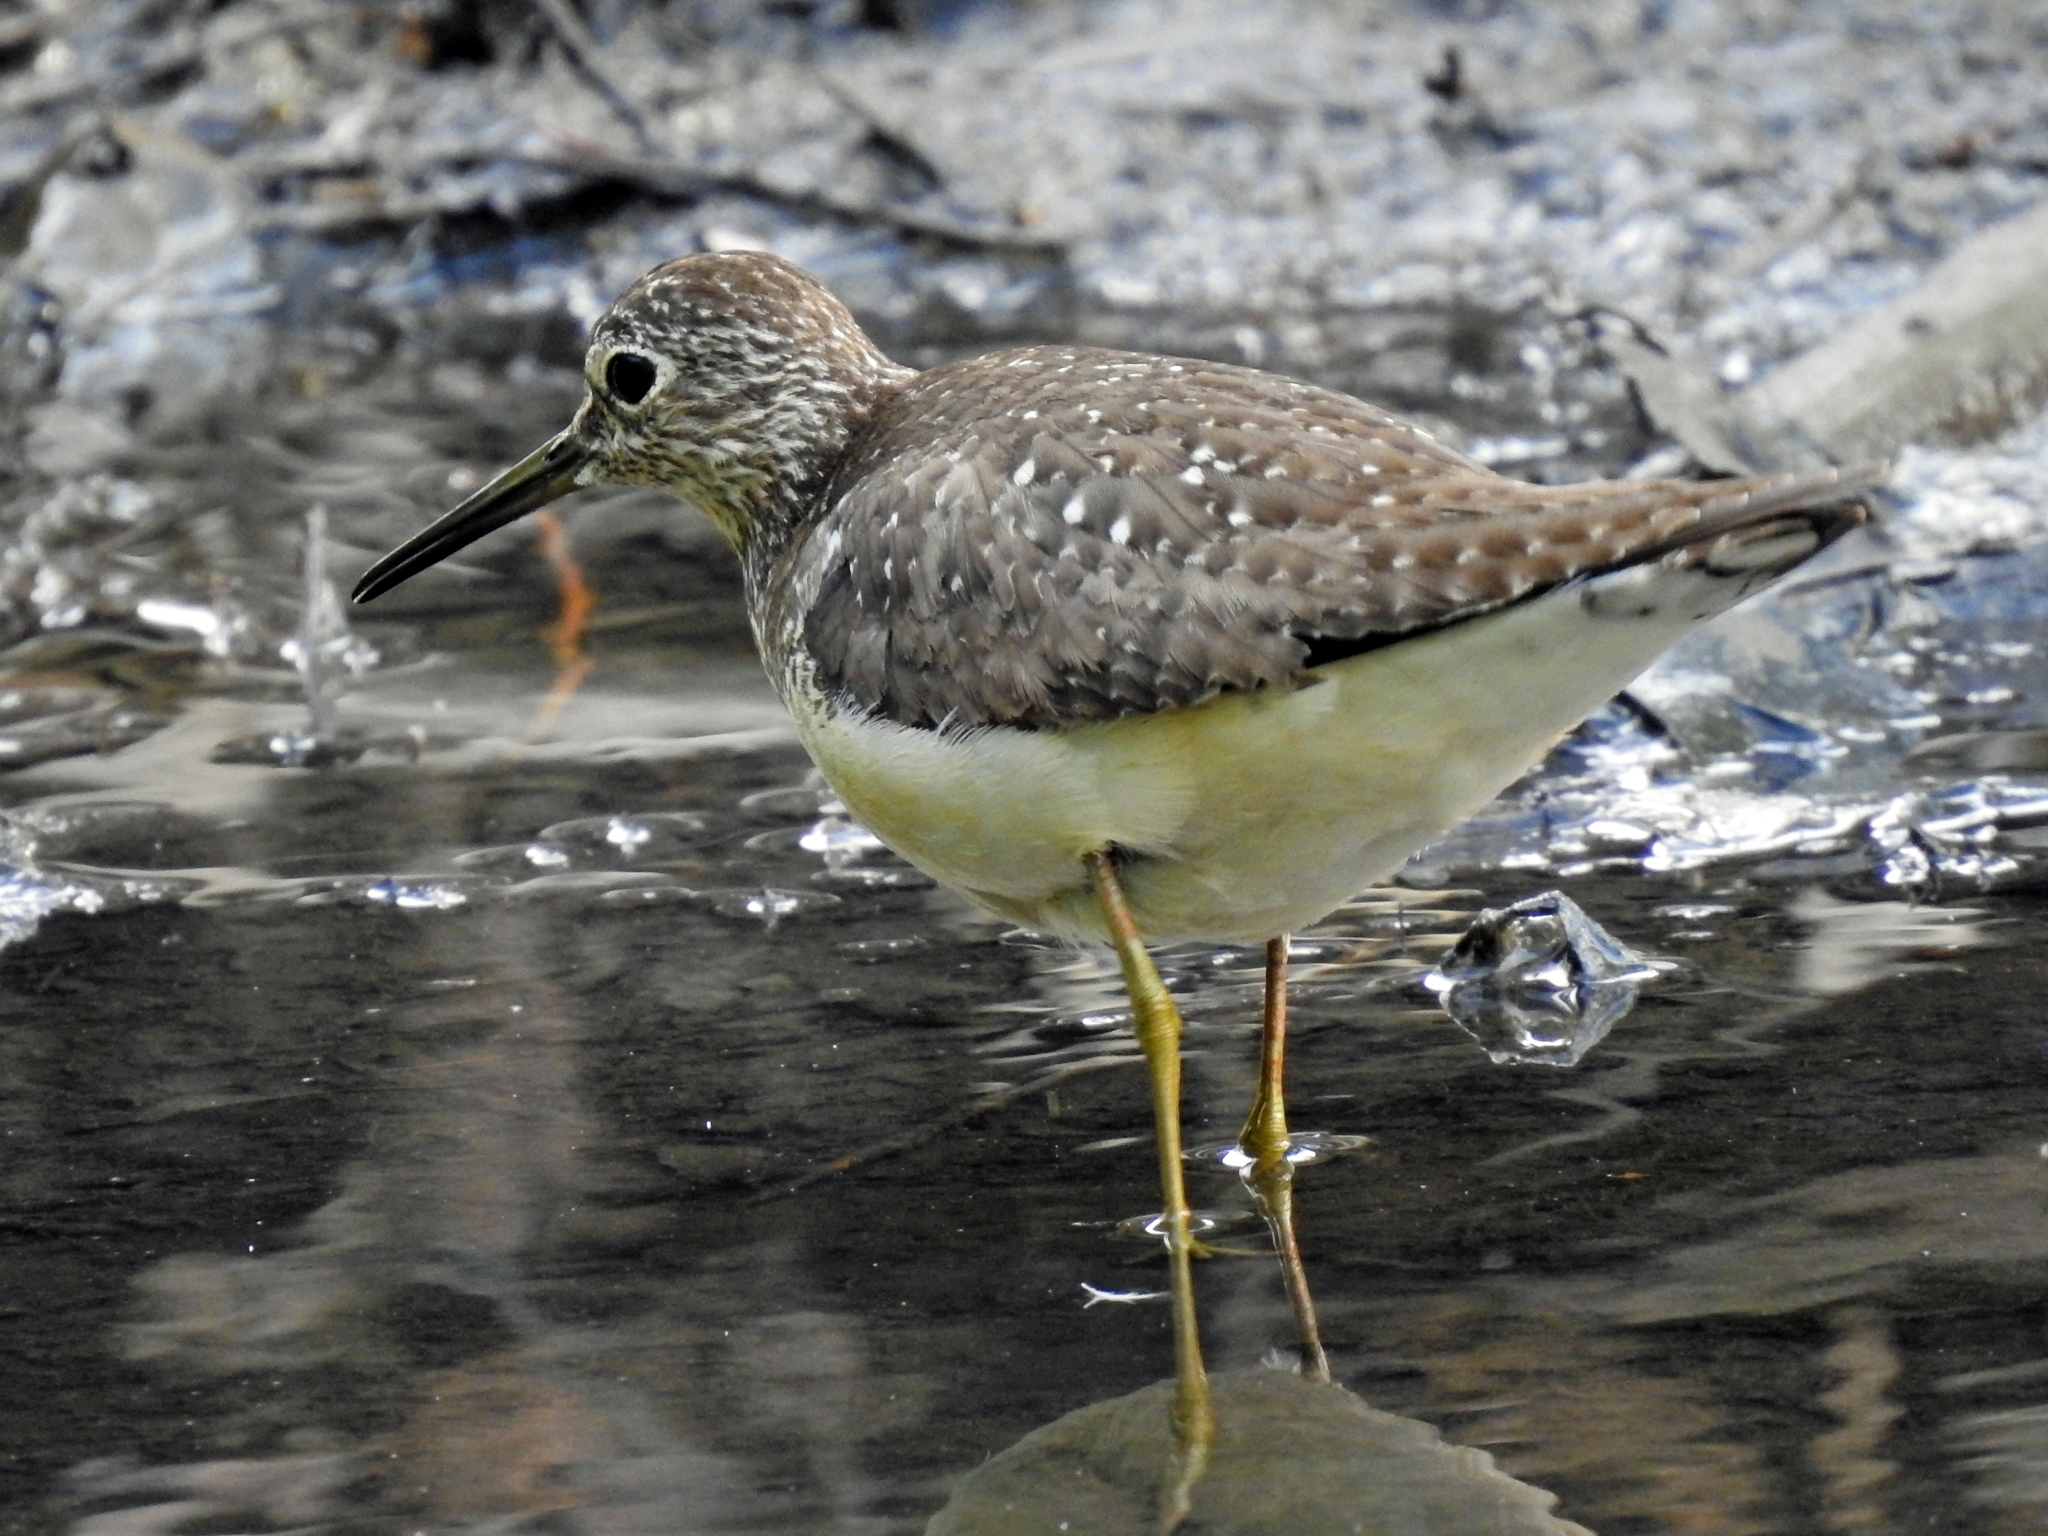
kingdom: Animalia
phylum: Chordata
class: Aves
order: Charadriiformes
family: Scolopacidae
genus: Tringa
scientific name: Tringa solitaria
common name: Solitary sandpiper
